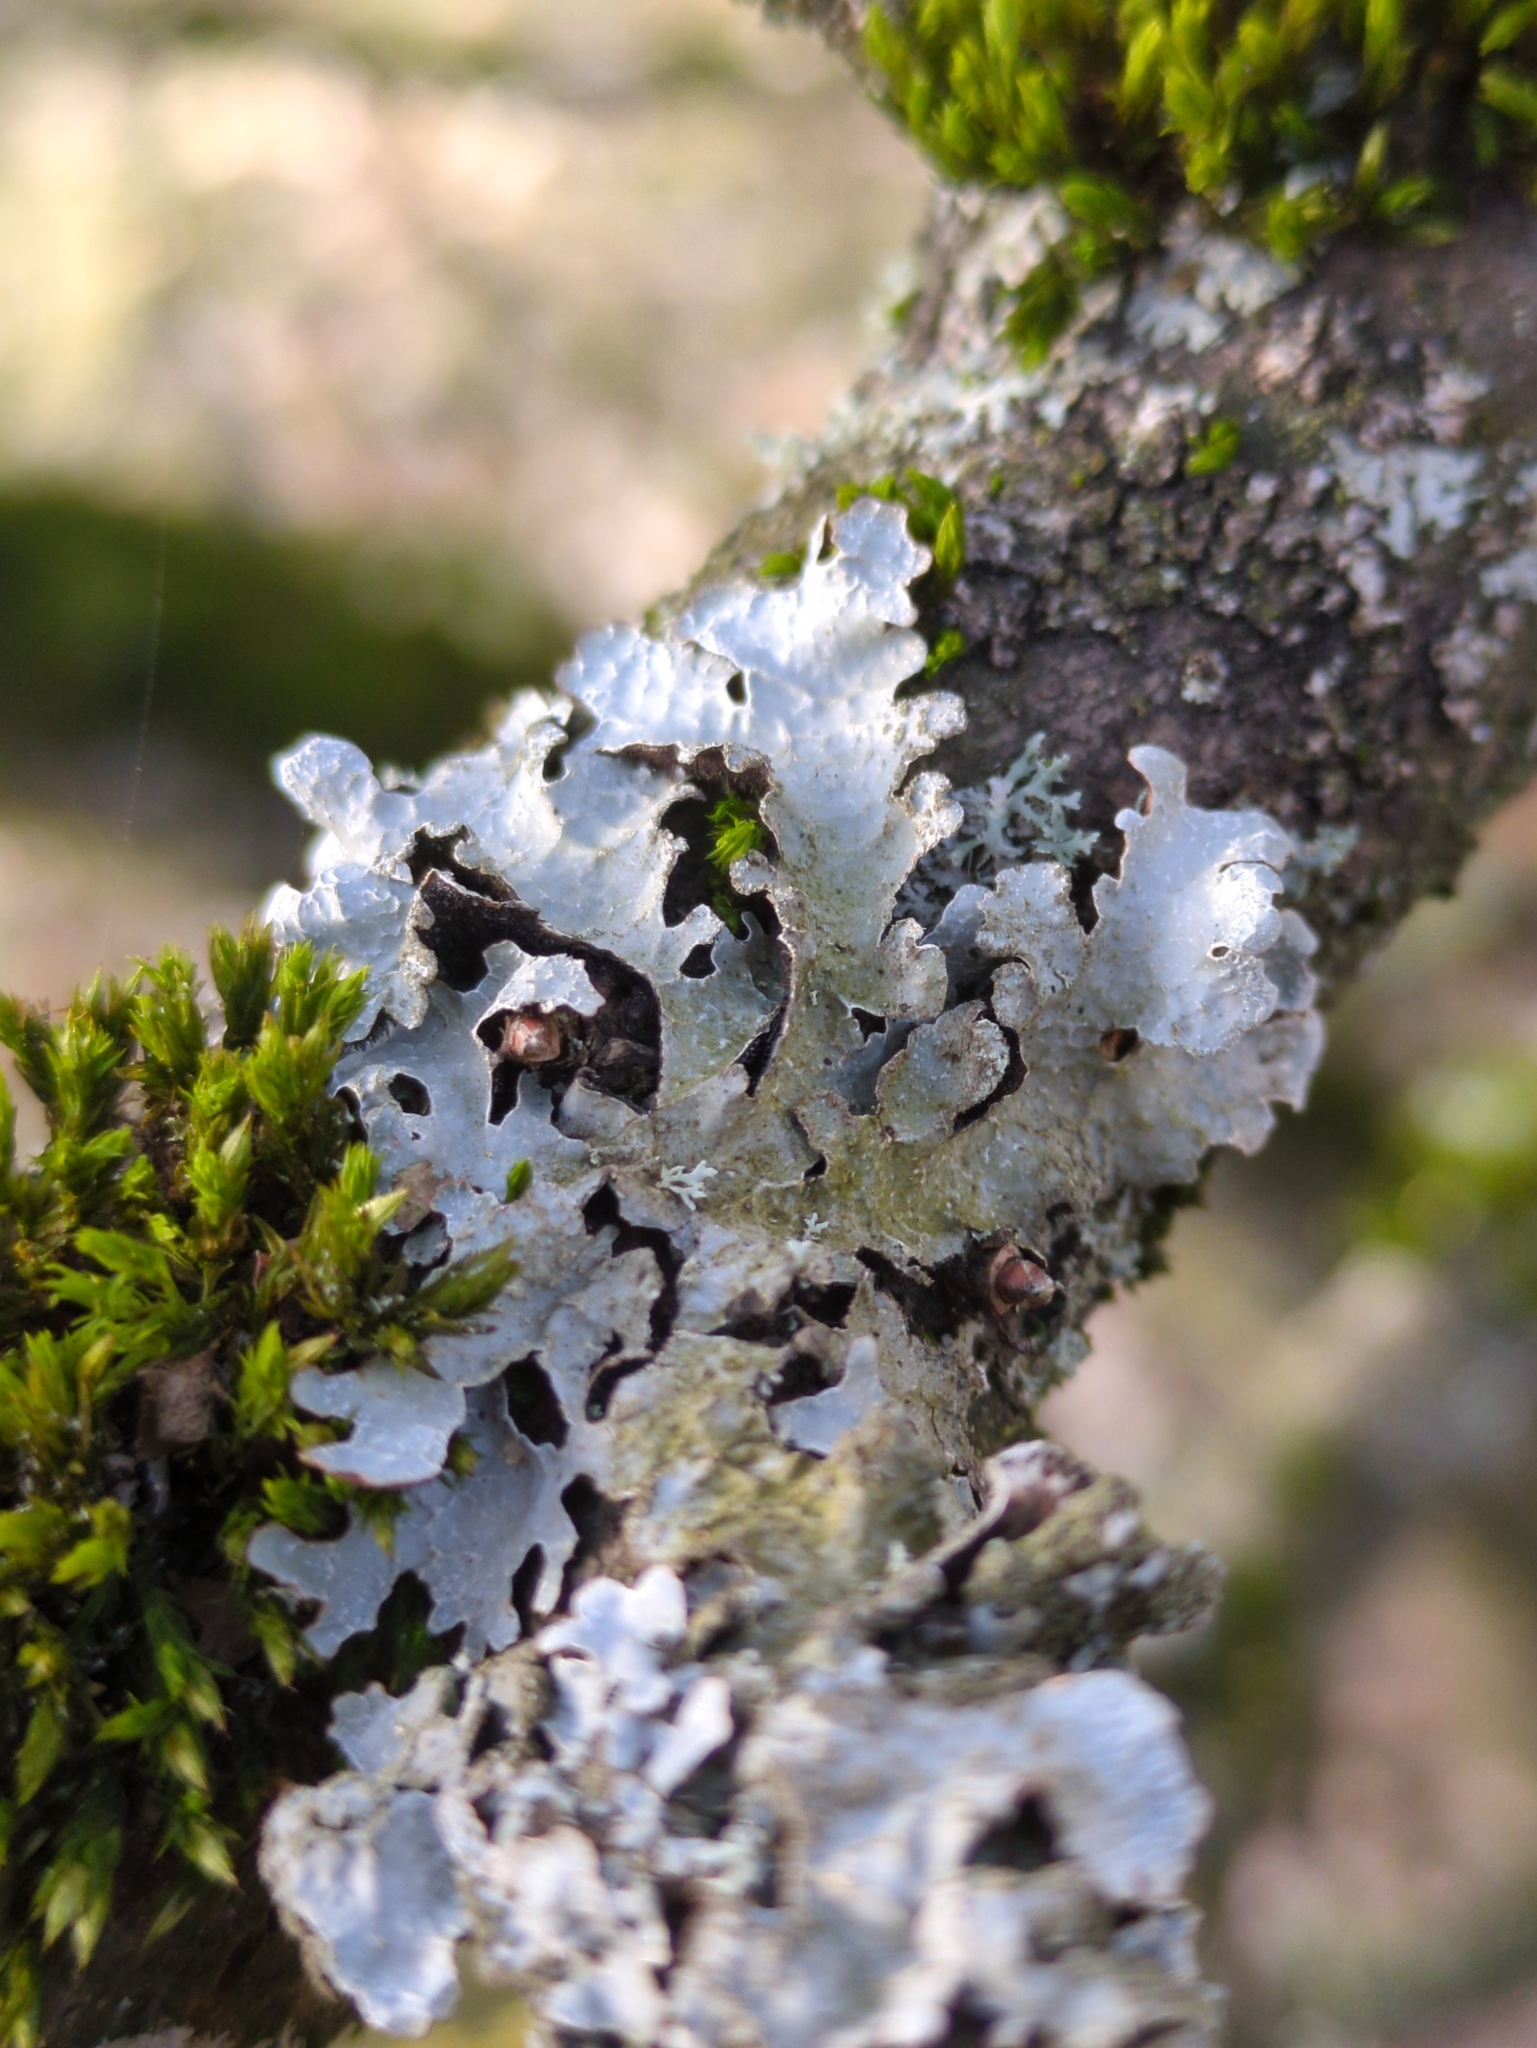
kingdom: Fungi
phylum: Ascomycota
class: Lecanoromycetes
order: Lecanorales
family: Parmeliaceae
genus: Parmelia
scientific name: Parmelia sulcata
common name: Netted shield lichen
